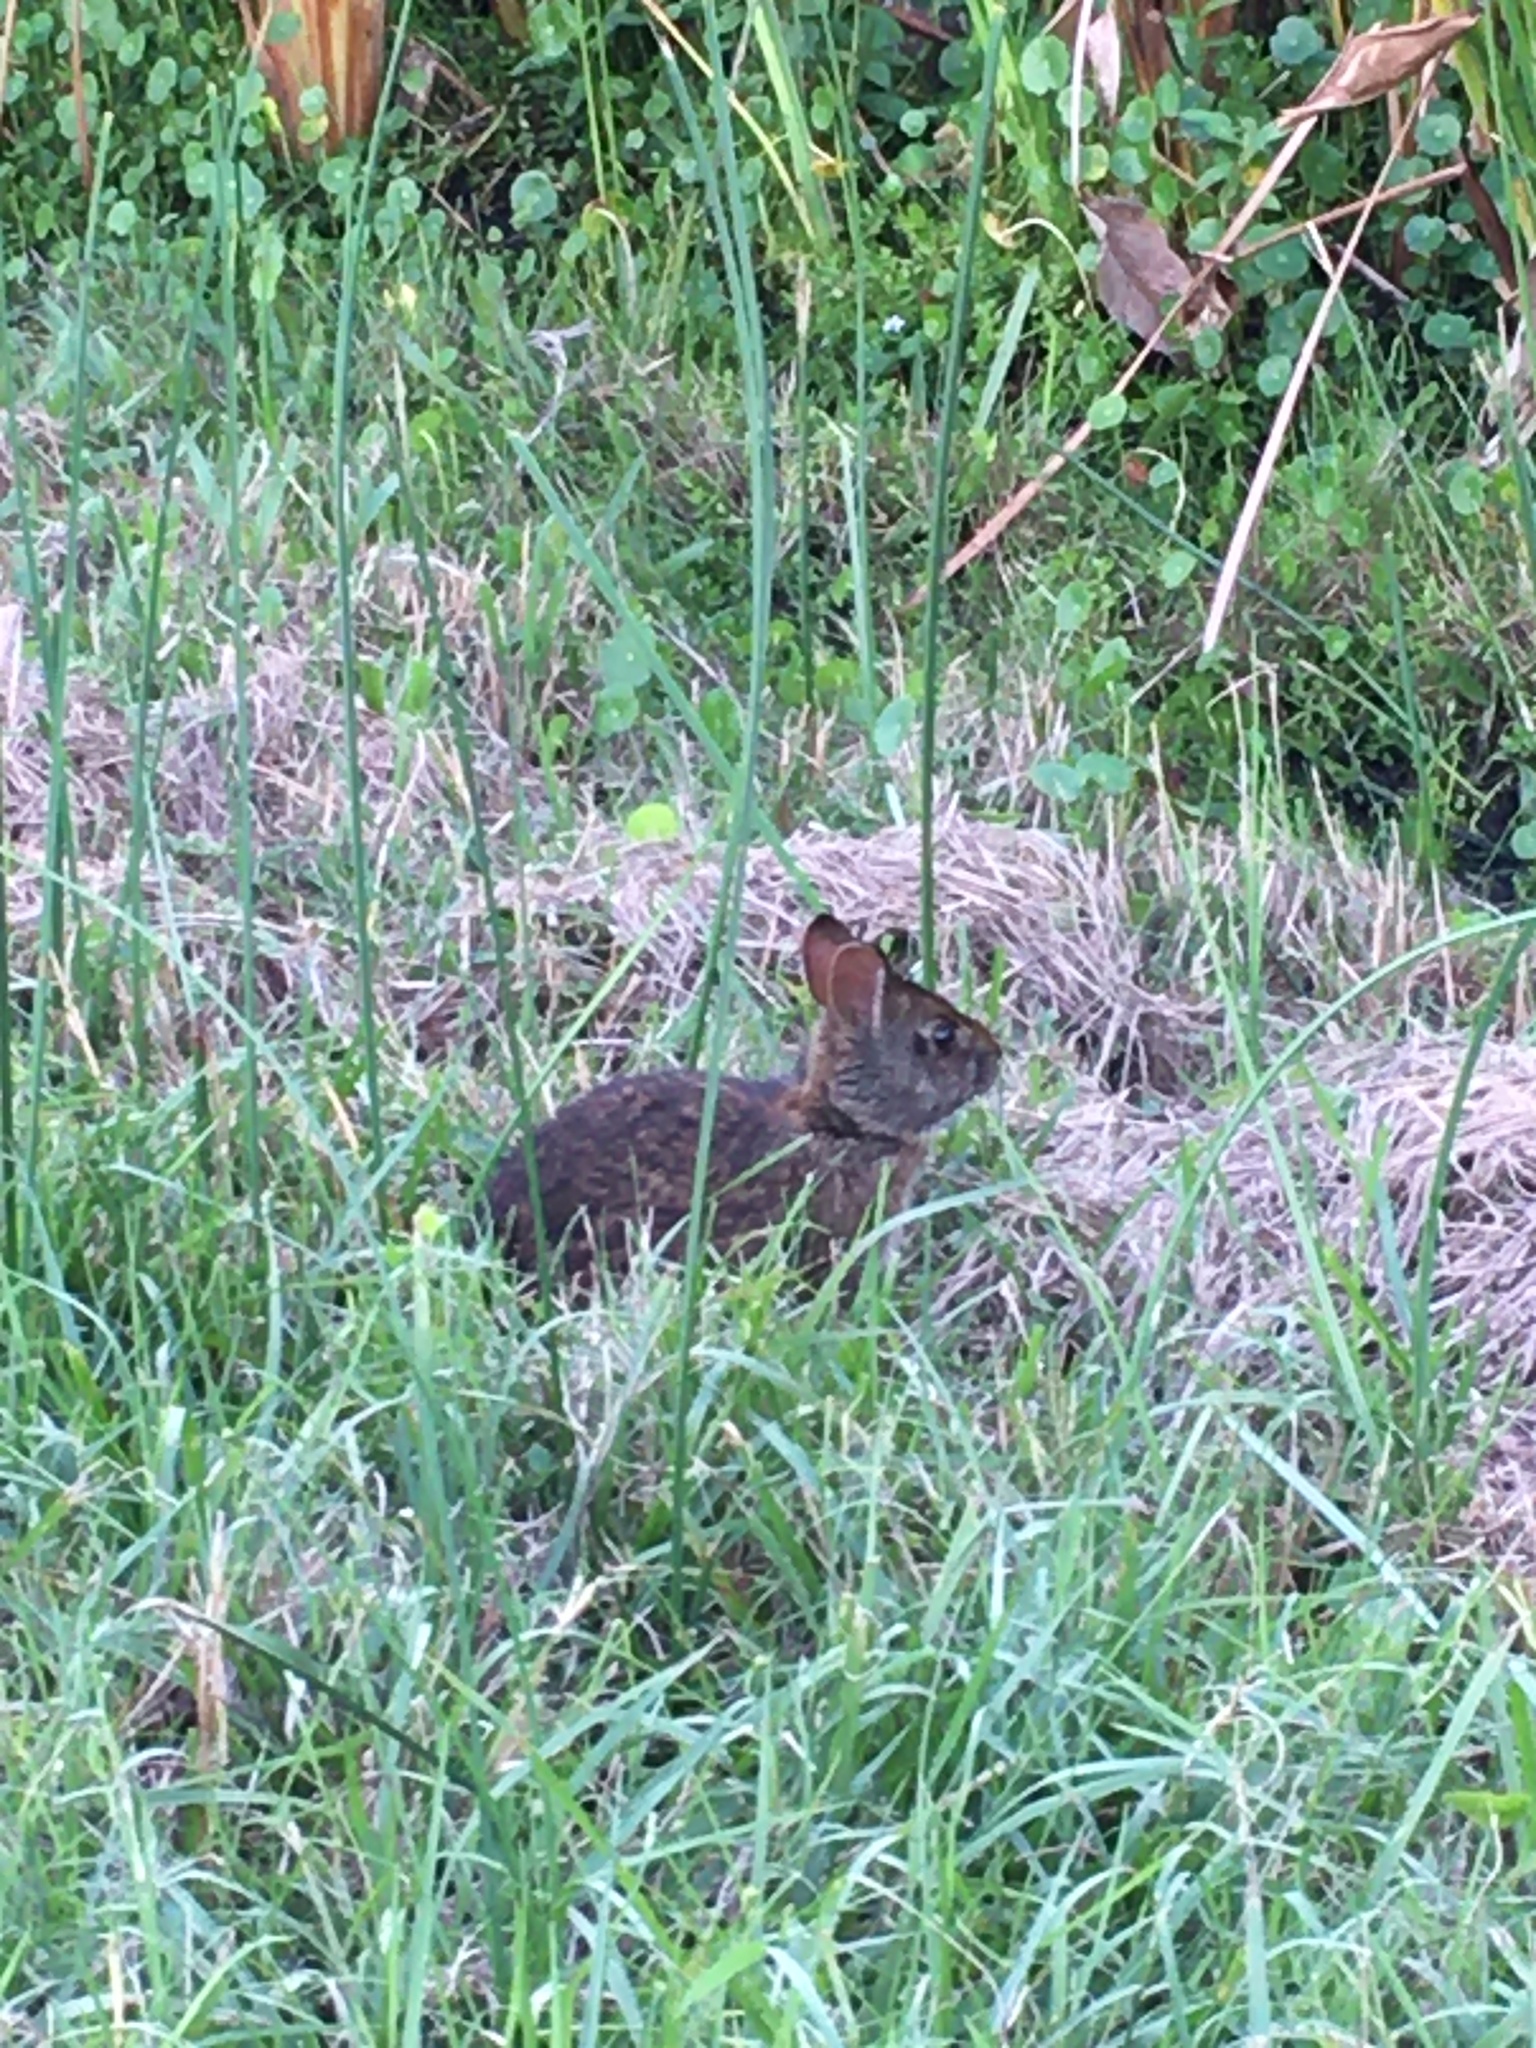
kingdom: Animalia
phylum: Chordata
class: Mammalia
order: Lagomorpha
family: Leporidae
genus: Sylvilagus
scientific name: Sylvilagus palustris
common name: Marsh rabbit
